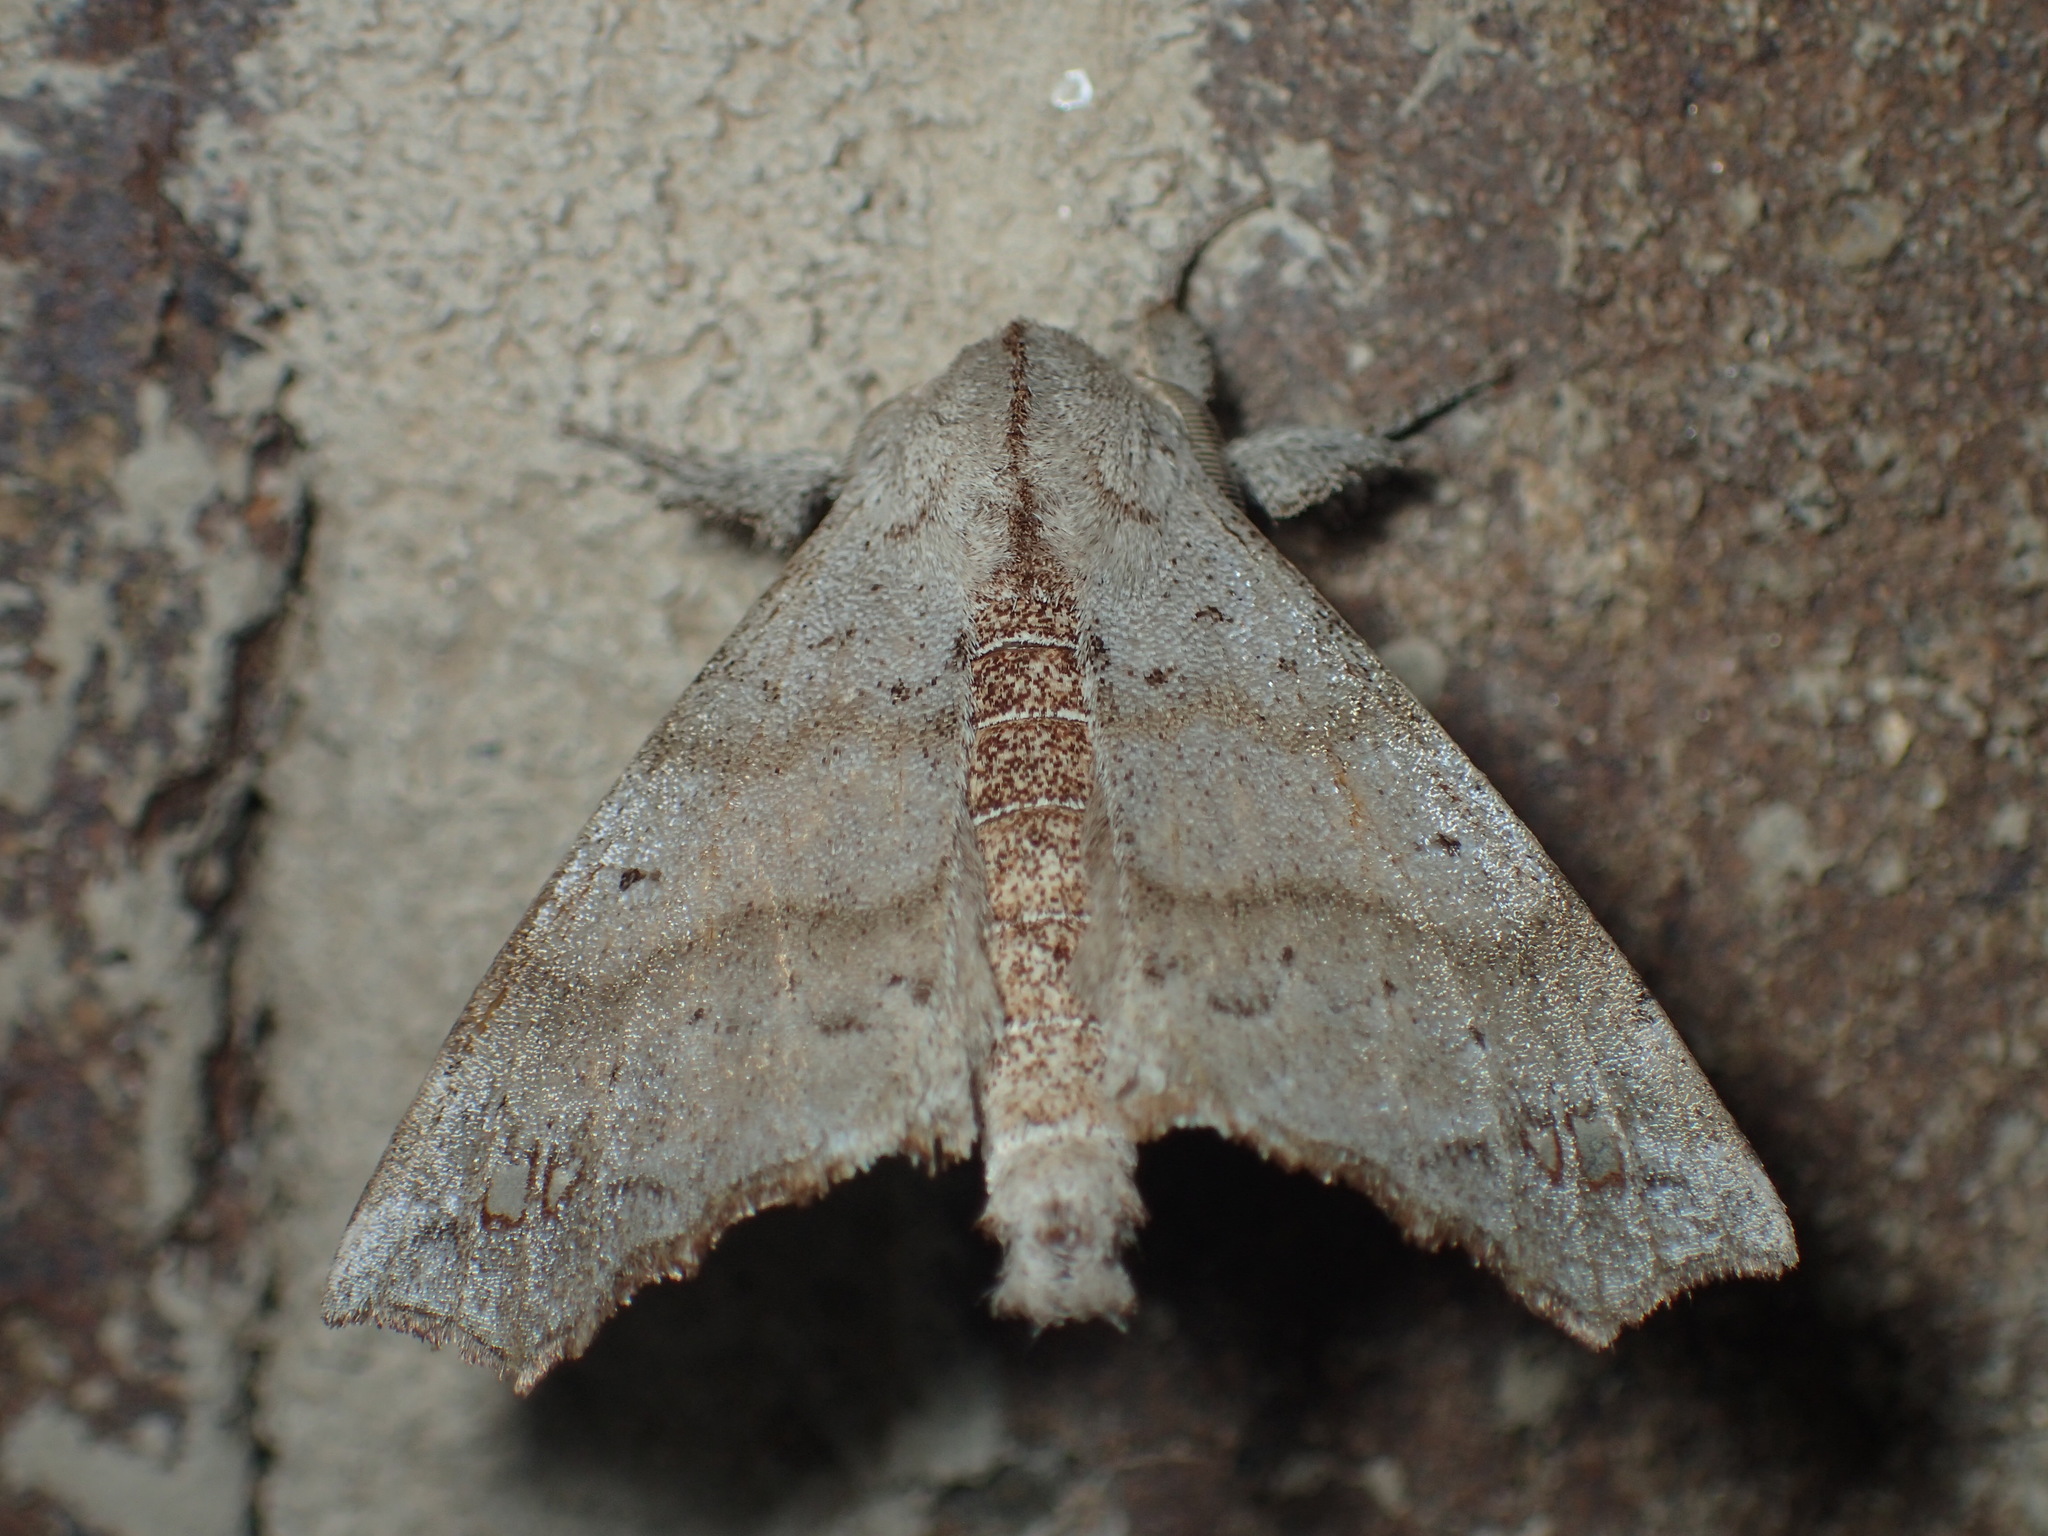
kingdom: Animalia
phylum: Arthropoda
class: Insecta
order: Lepidoptera
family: Apatelodidae
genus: Olceclostera
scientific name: Olceclostera angelica
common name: Angel moth
